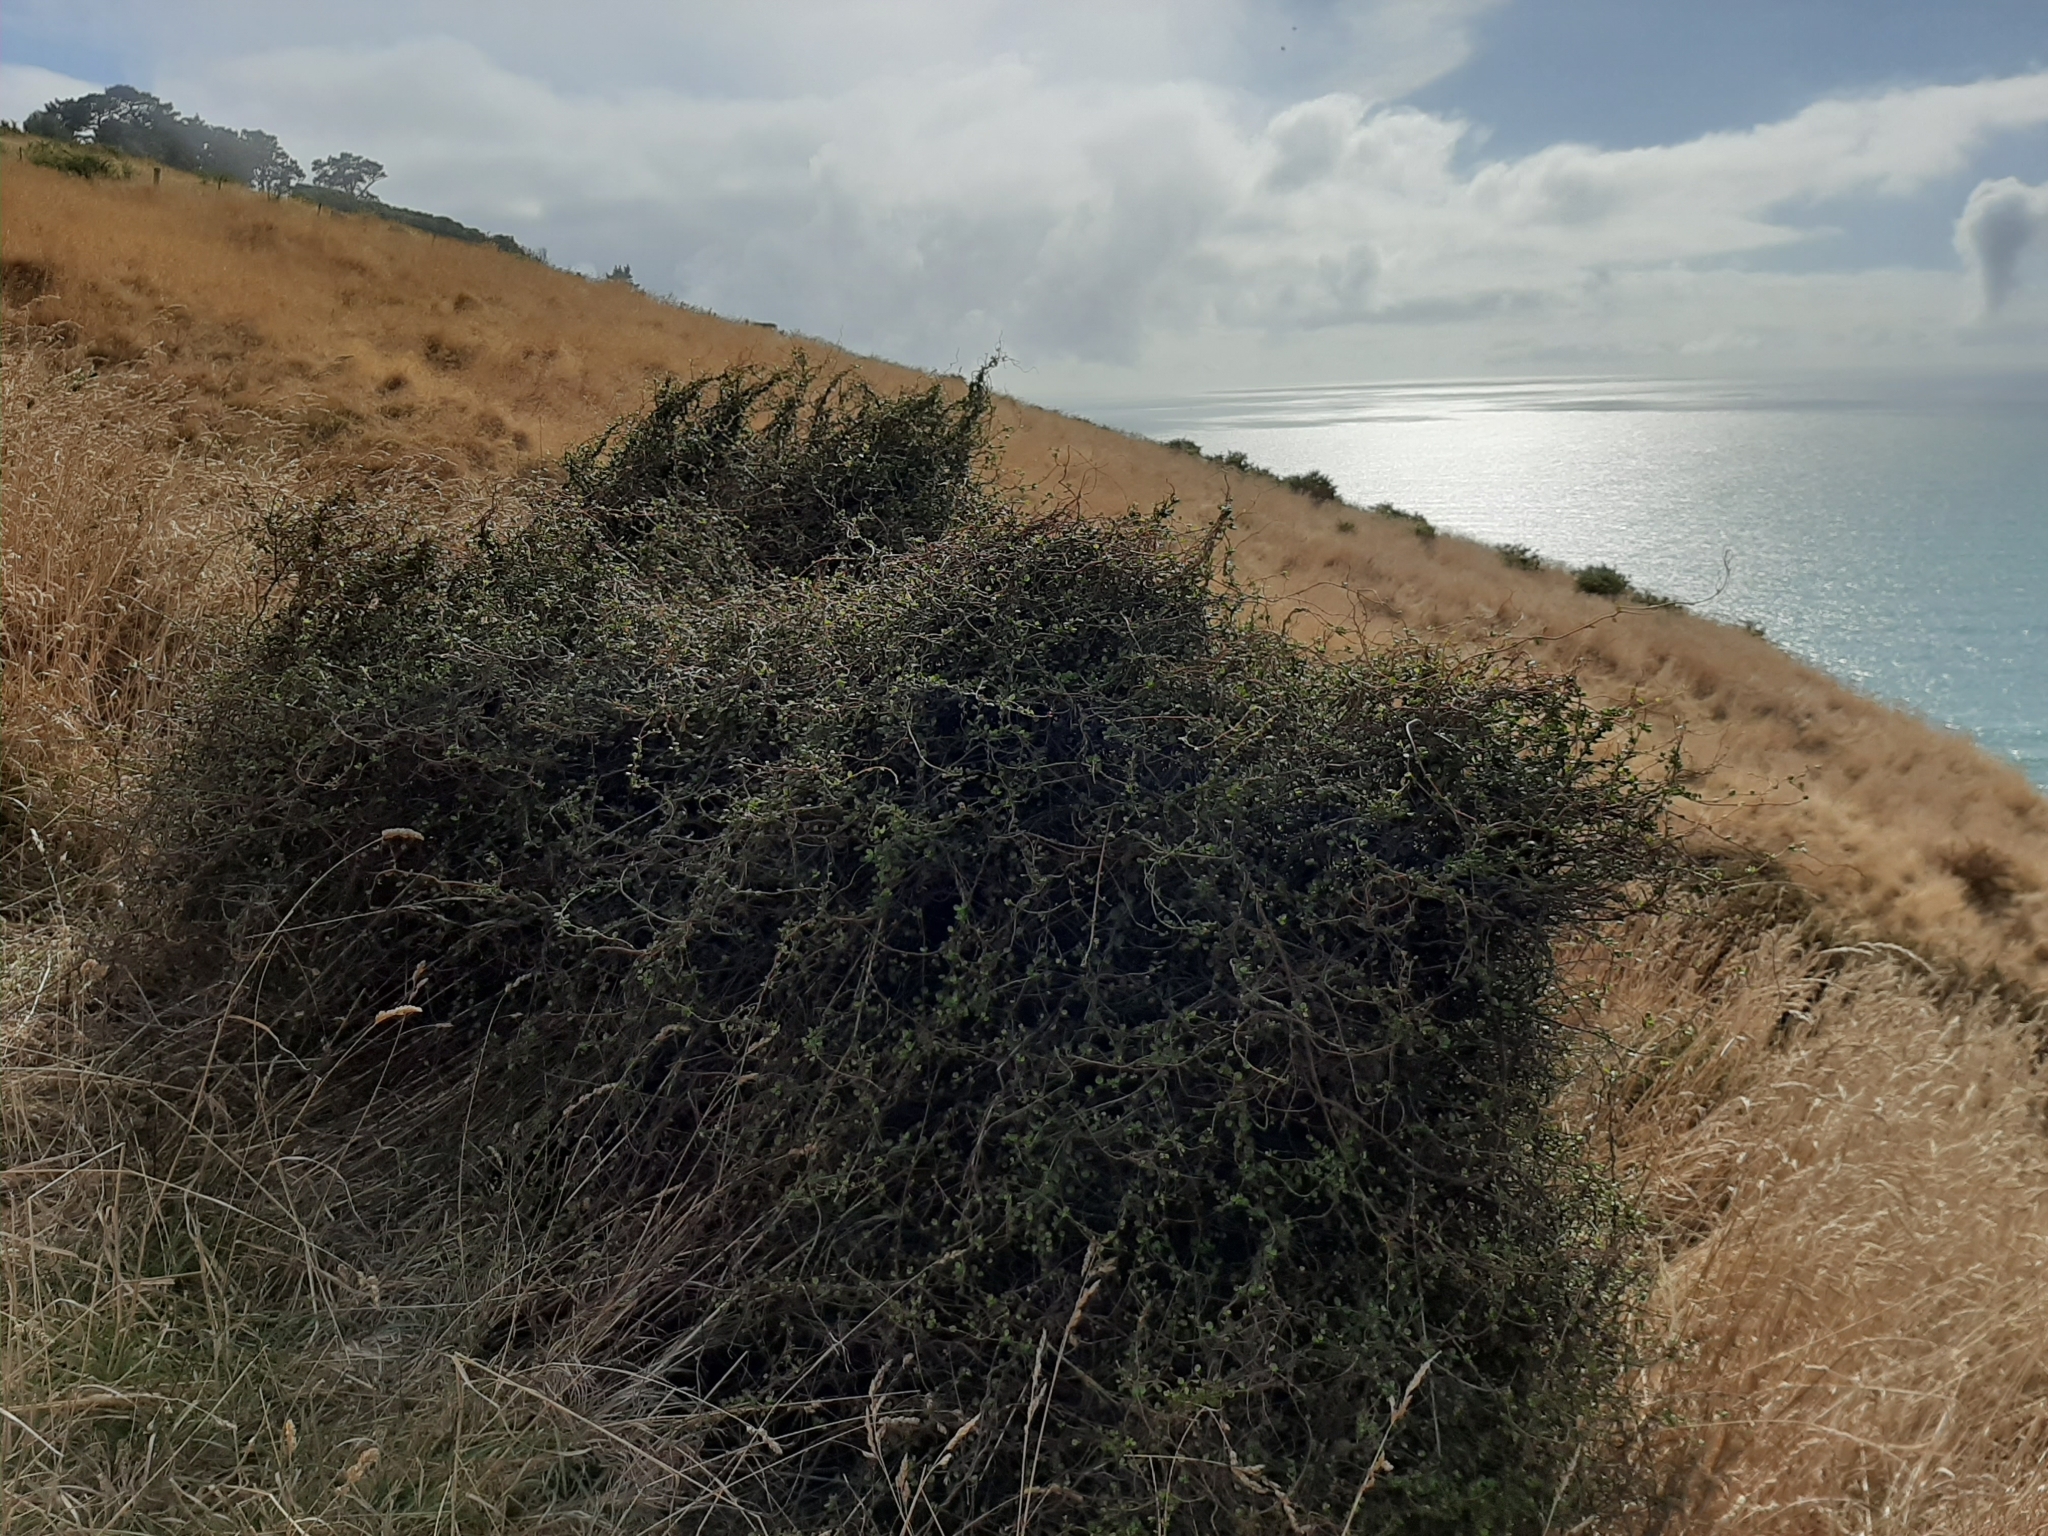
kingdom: Plantae
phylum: Tracheophyta
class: Magnoliopsida
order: Caryophyllales
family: Polygonaceae
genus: Muehlenbeckia
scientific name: Muehlenbeckia complexa
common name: Wireplant
